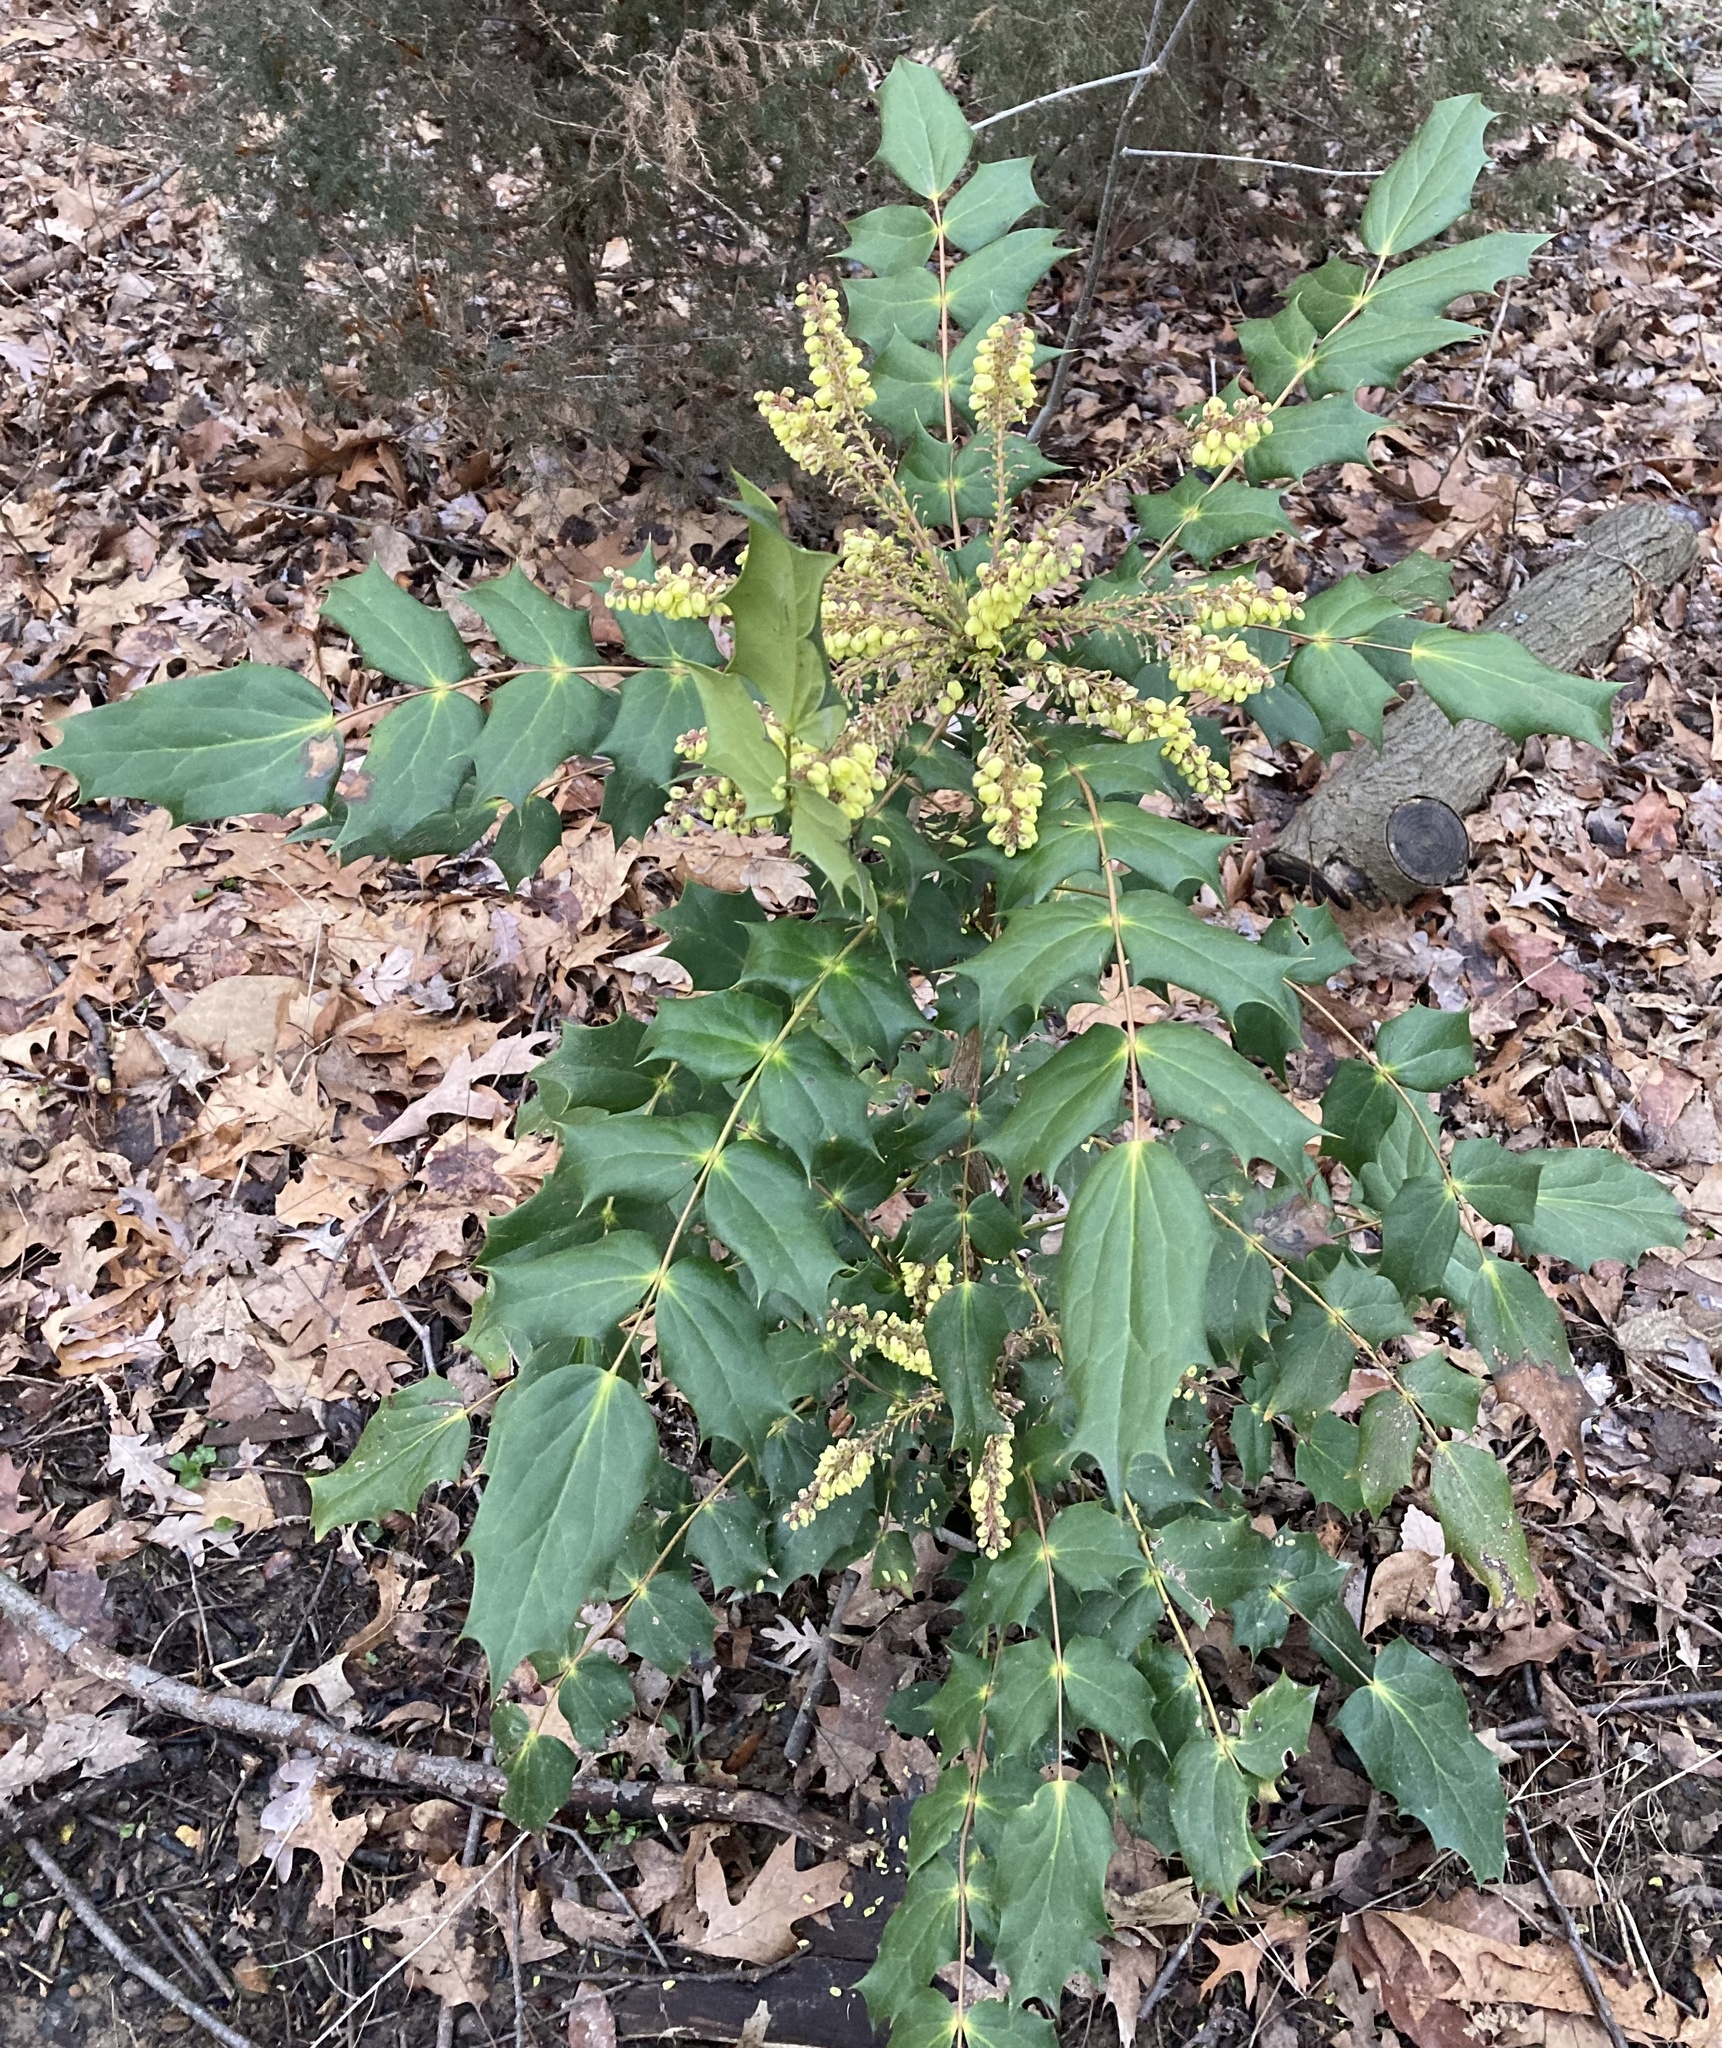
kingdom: Plantae
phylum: Tracheophyta
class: Magnoliopsida
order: Ranunculales
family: Berberidaceae
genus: Mahonia
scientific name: Mahonia bealei
